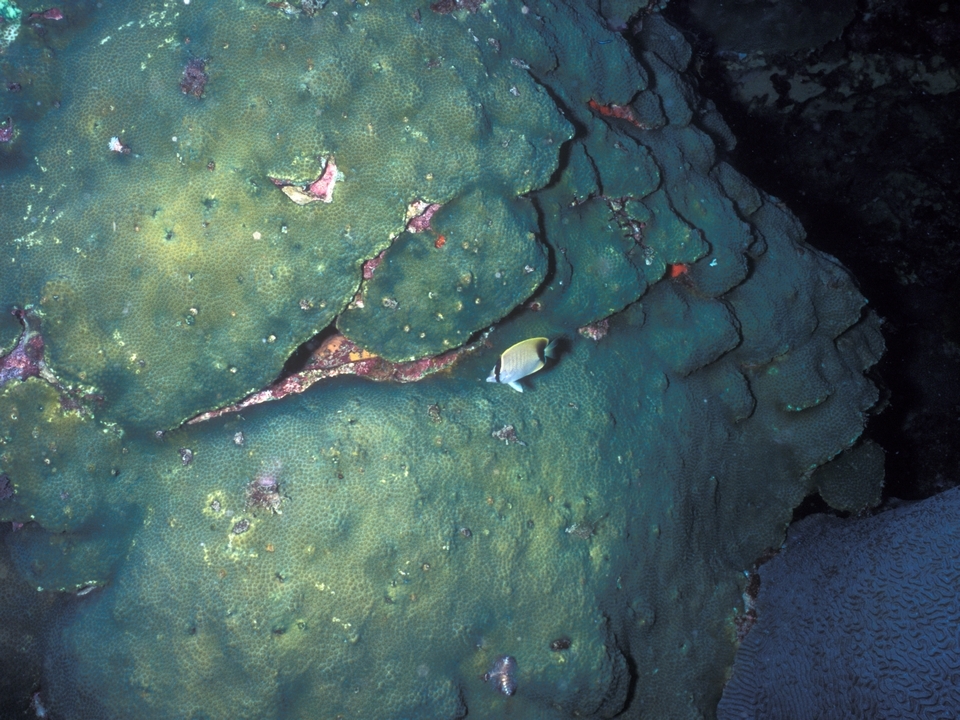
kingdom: Animalia
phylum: Cnidaria
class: Anthozoa
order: Scleractinia
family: Merulinidae
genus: Orbicella
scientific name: Orbicella faveolata
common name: Mountainous star coral
